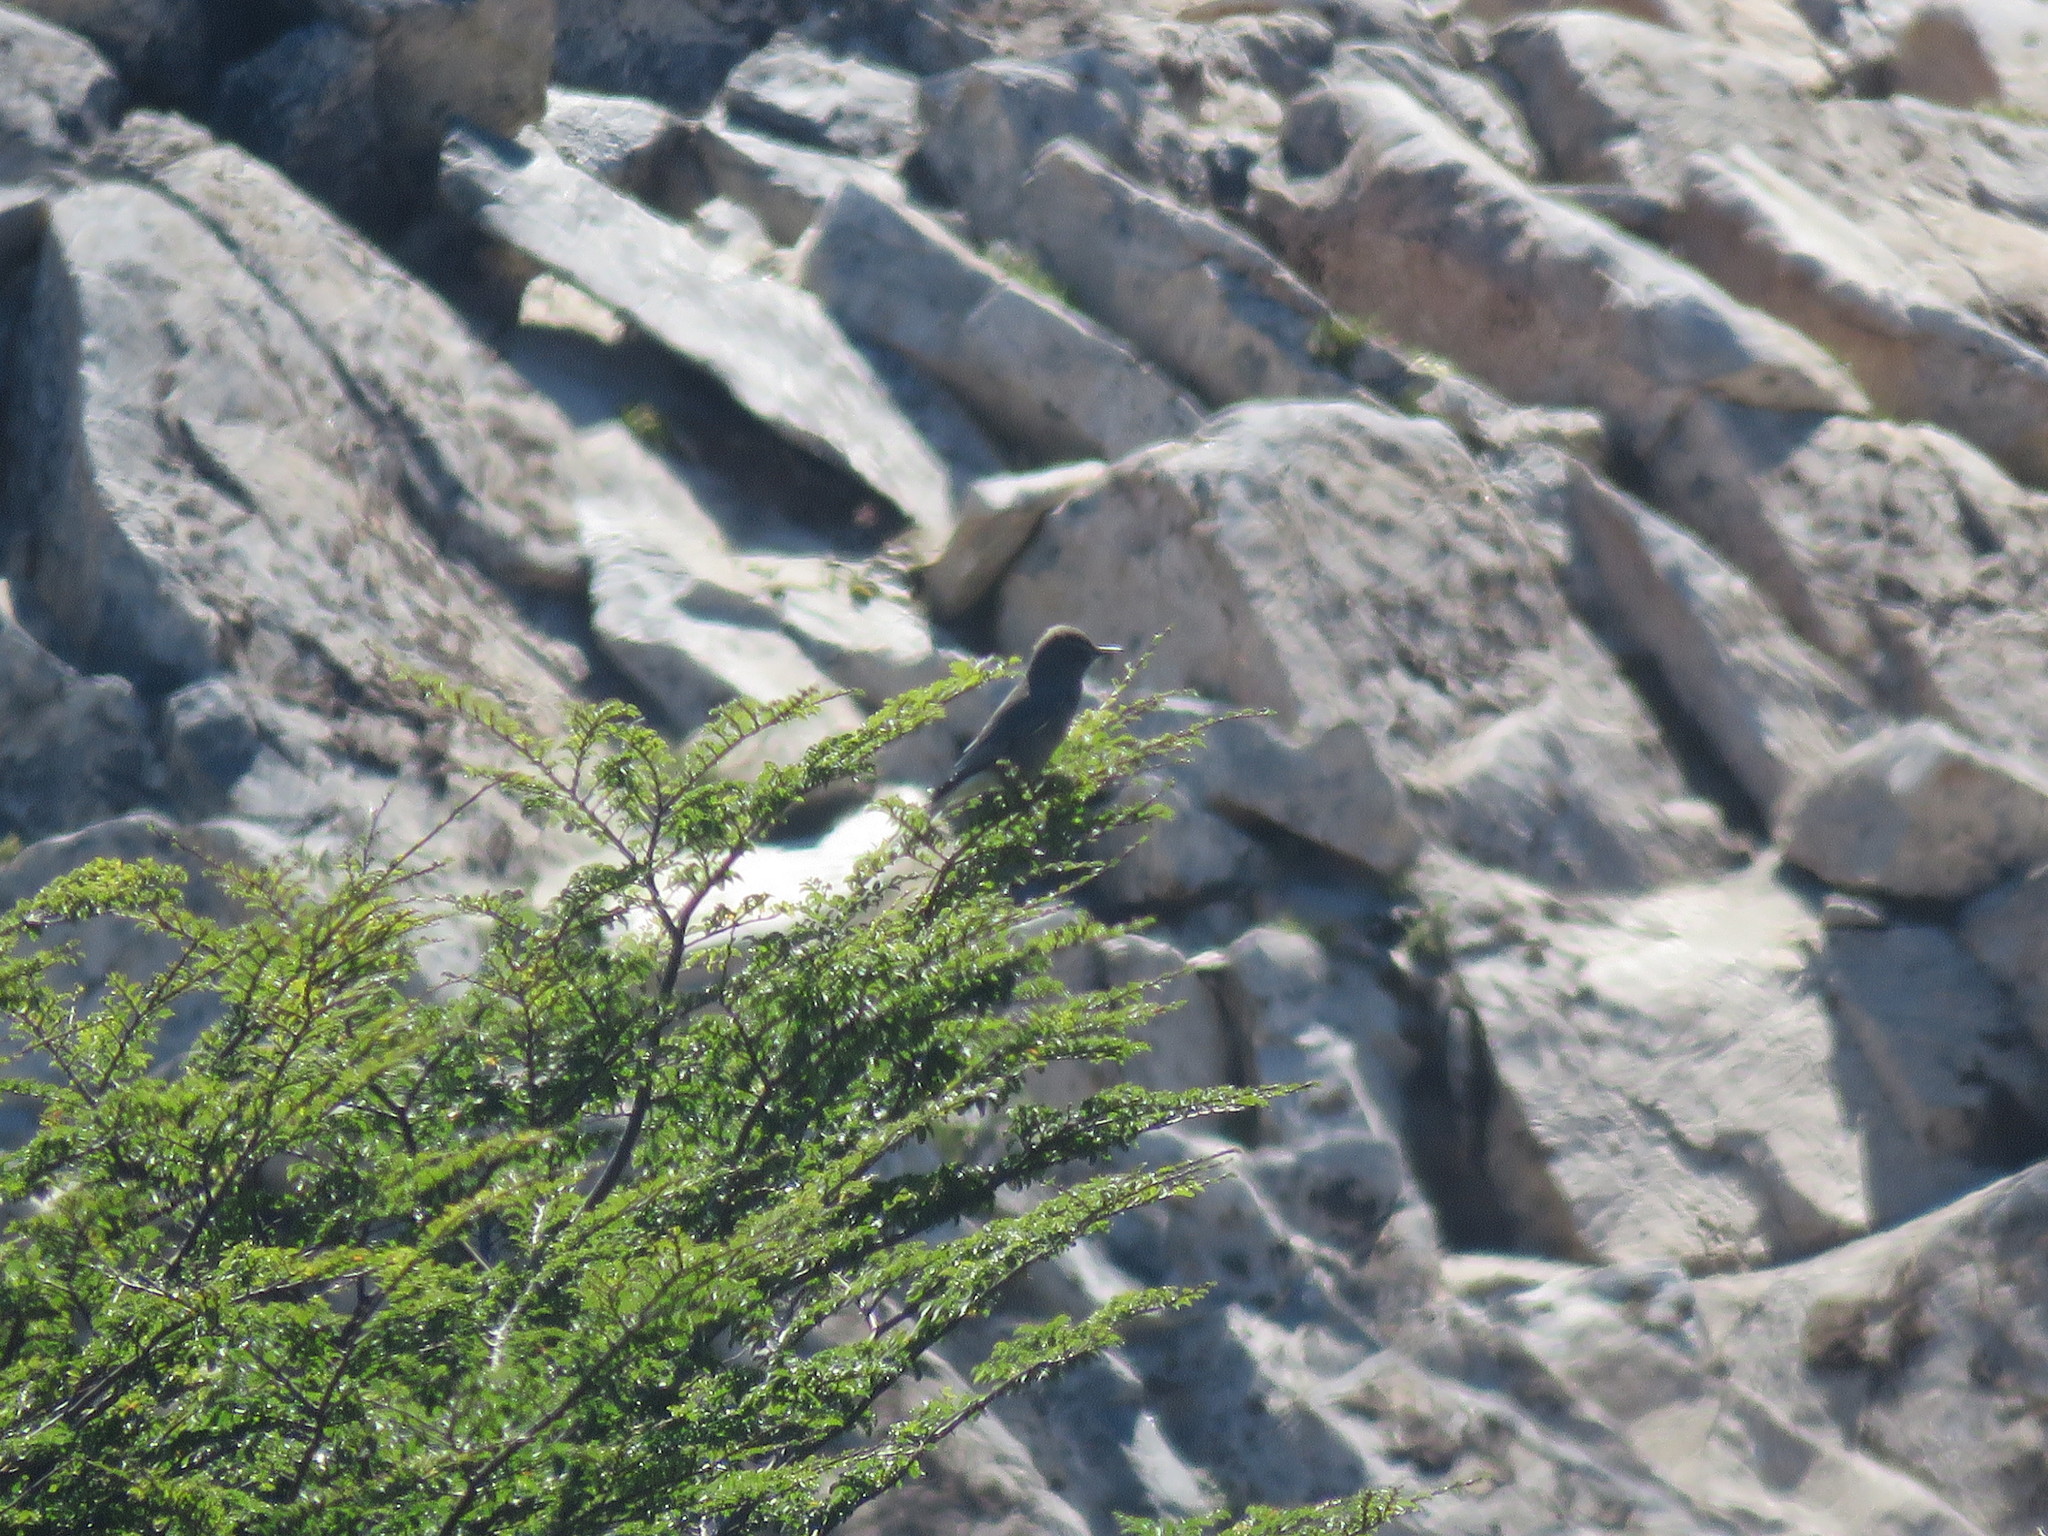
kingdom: Animalia
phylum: Chordata
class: Aves
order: Passeriformes
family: Tyrannidae
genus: Agriornis
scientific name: Agriornis montanus
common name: Black-billed shrike-tyrant
